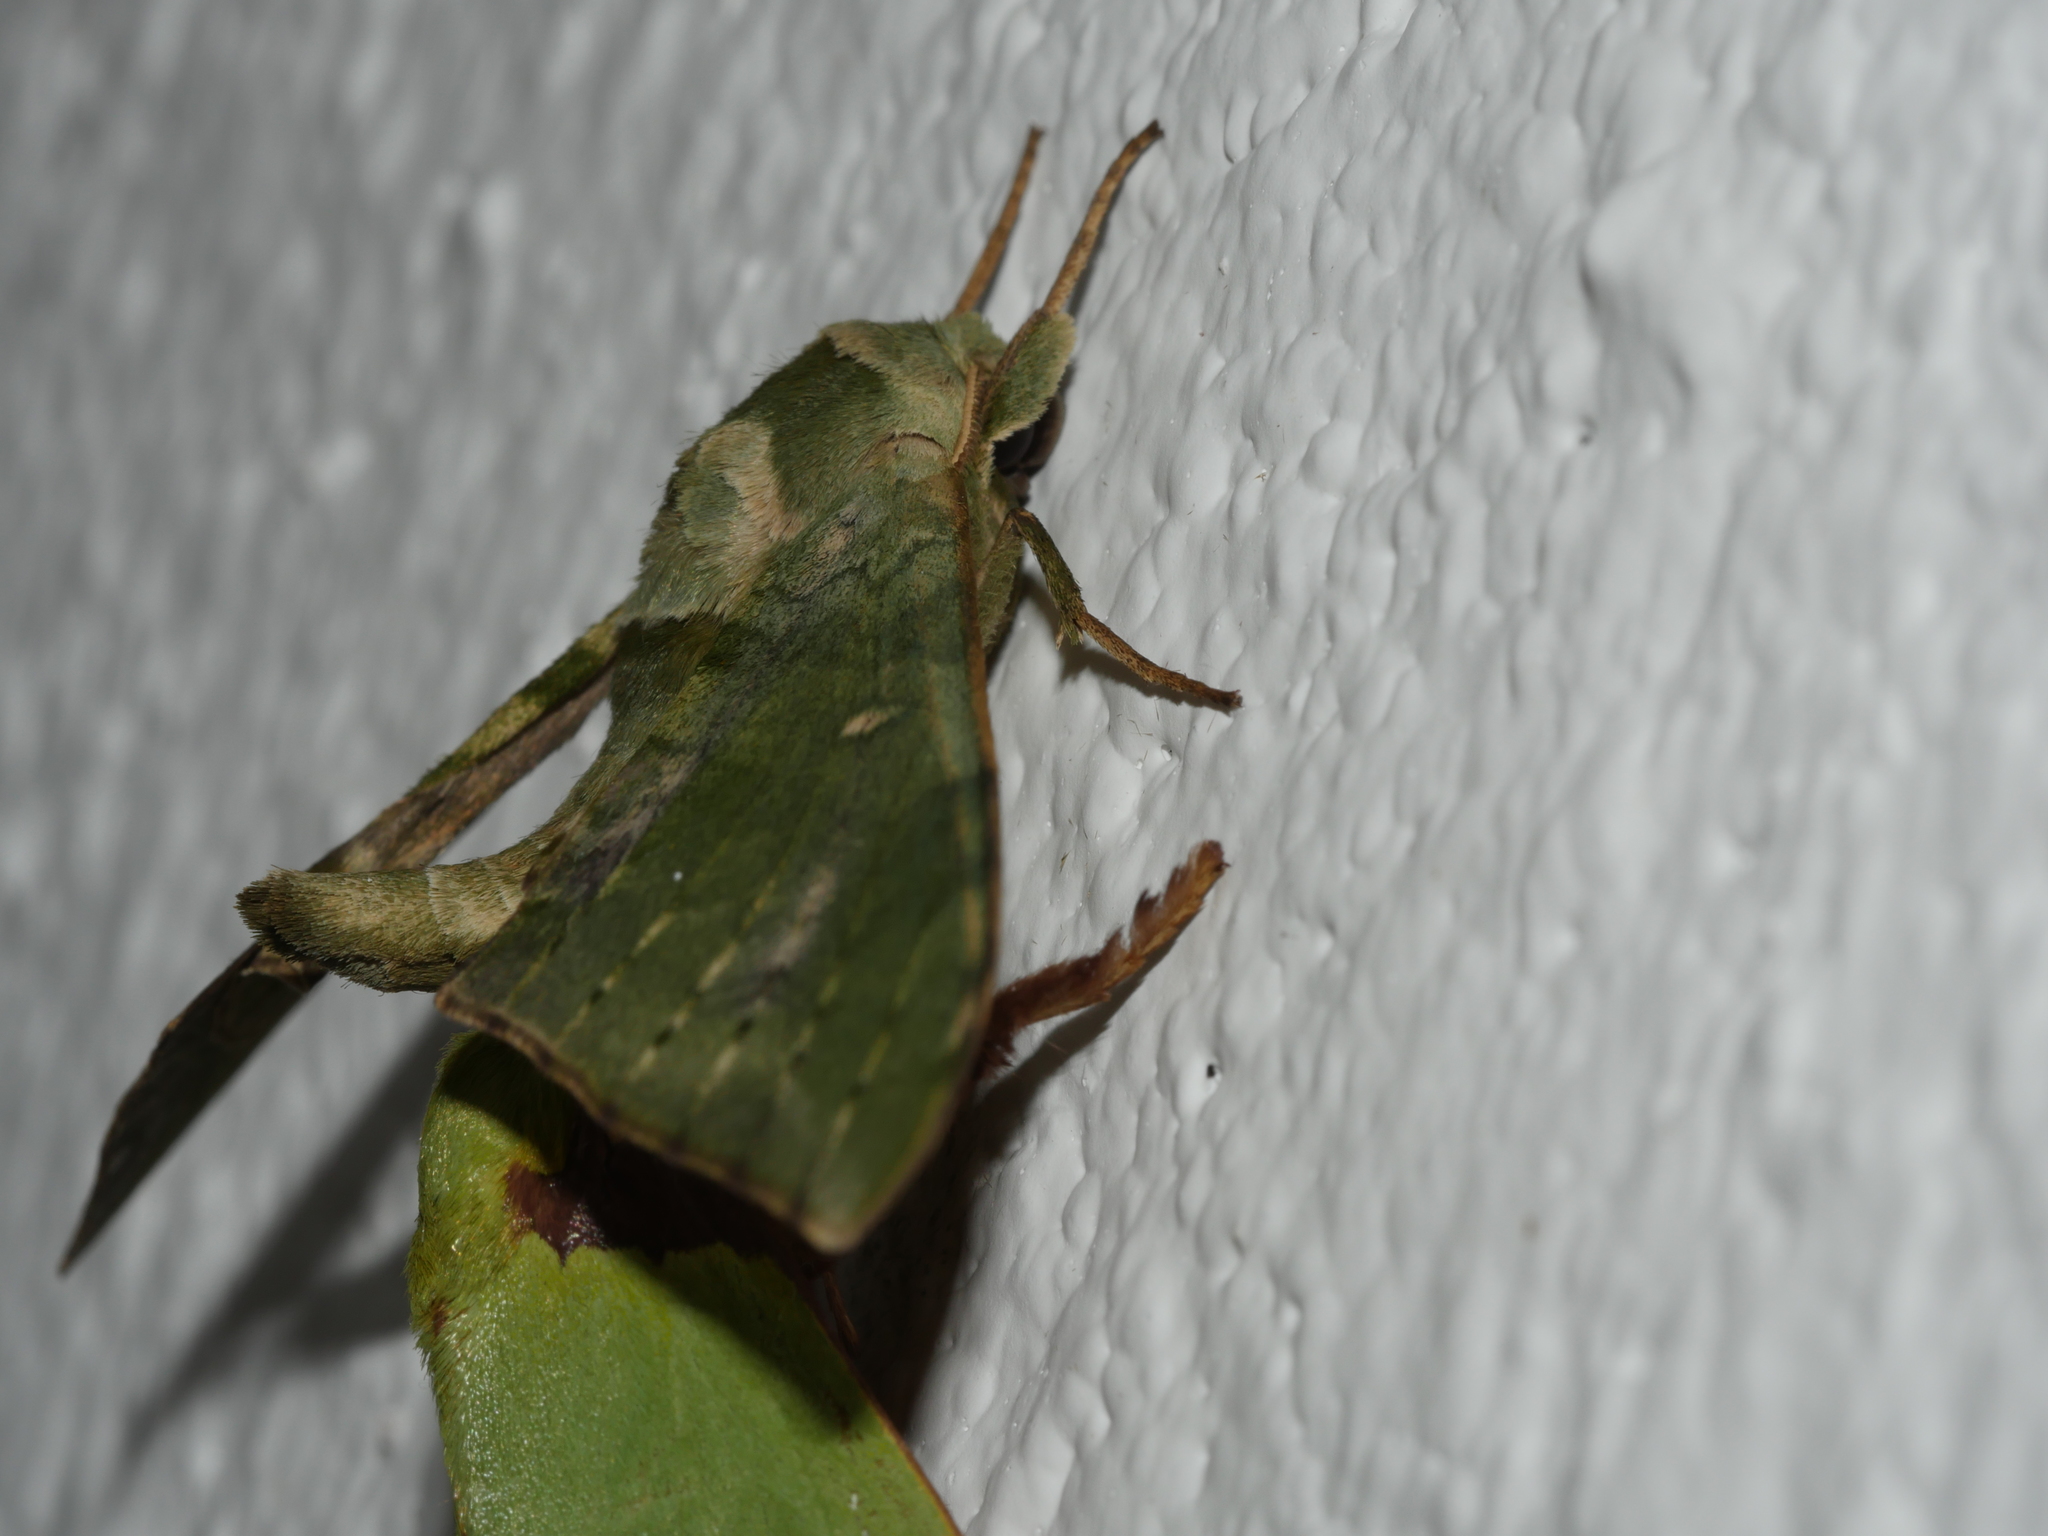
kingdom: Animalia
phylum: Arthropoda
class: Insecta
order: Lepidoptera
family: Sphingidae
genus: Chloroclanis
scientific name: Chloroclanis virescens
